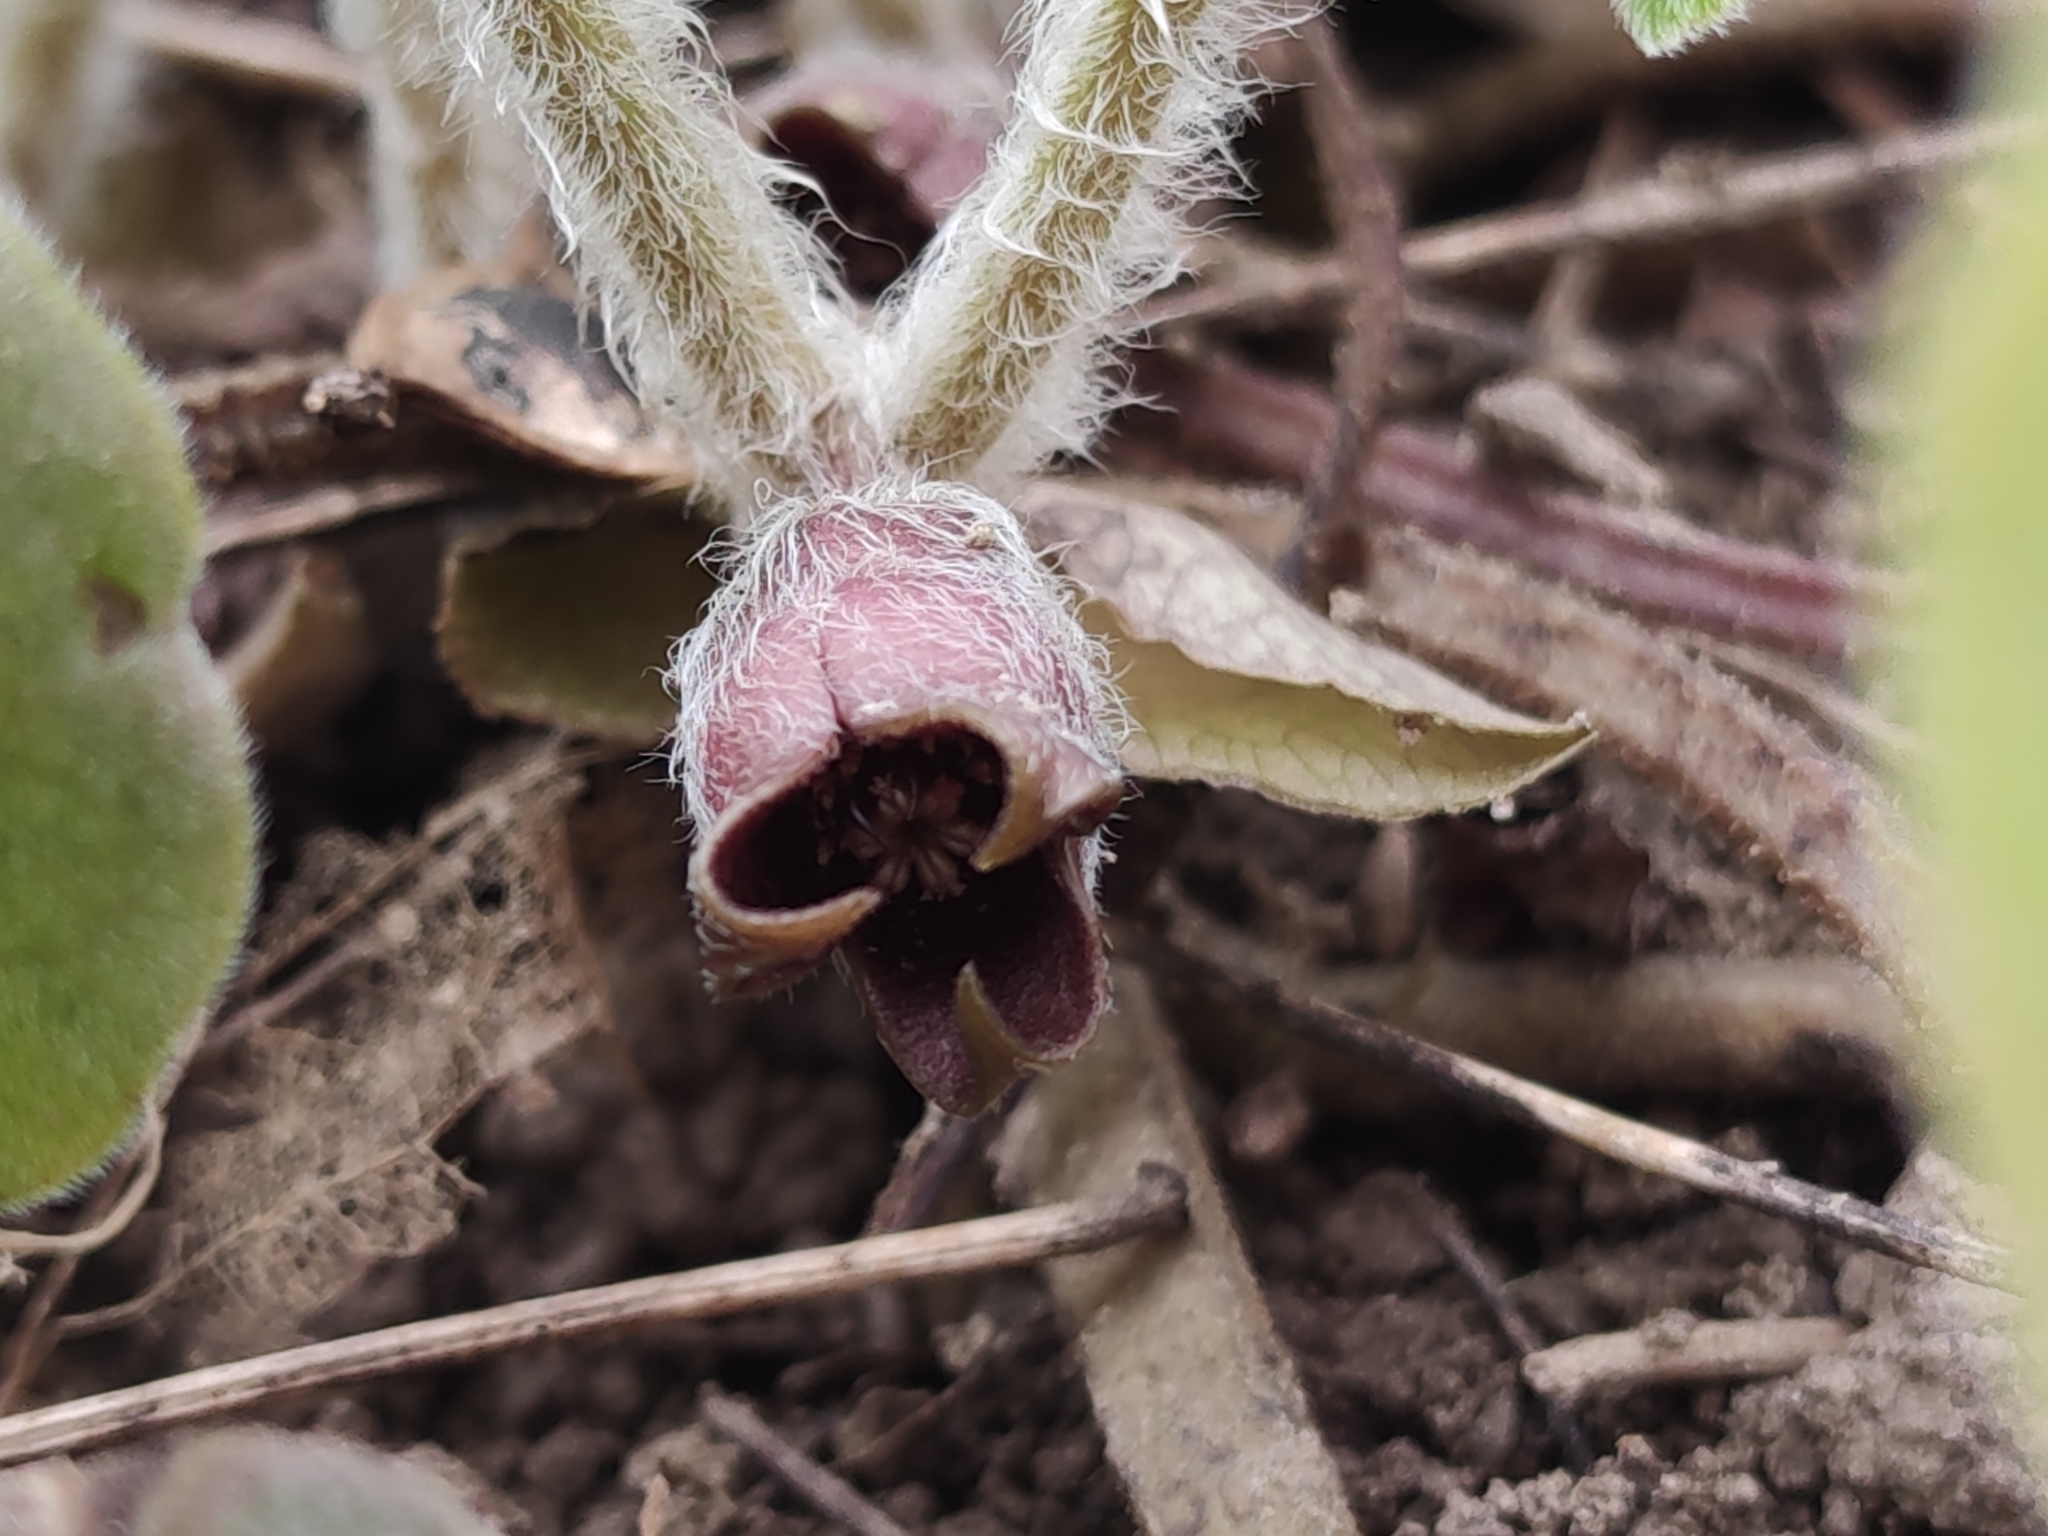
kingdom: Plantae
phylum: Tracheophyta
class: Magnoliopsida
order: Piperales
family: Aristolochiaceae
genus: Asarum
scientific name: Asarum europaeum
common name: Asarabacca
